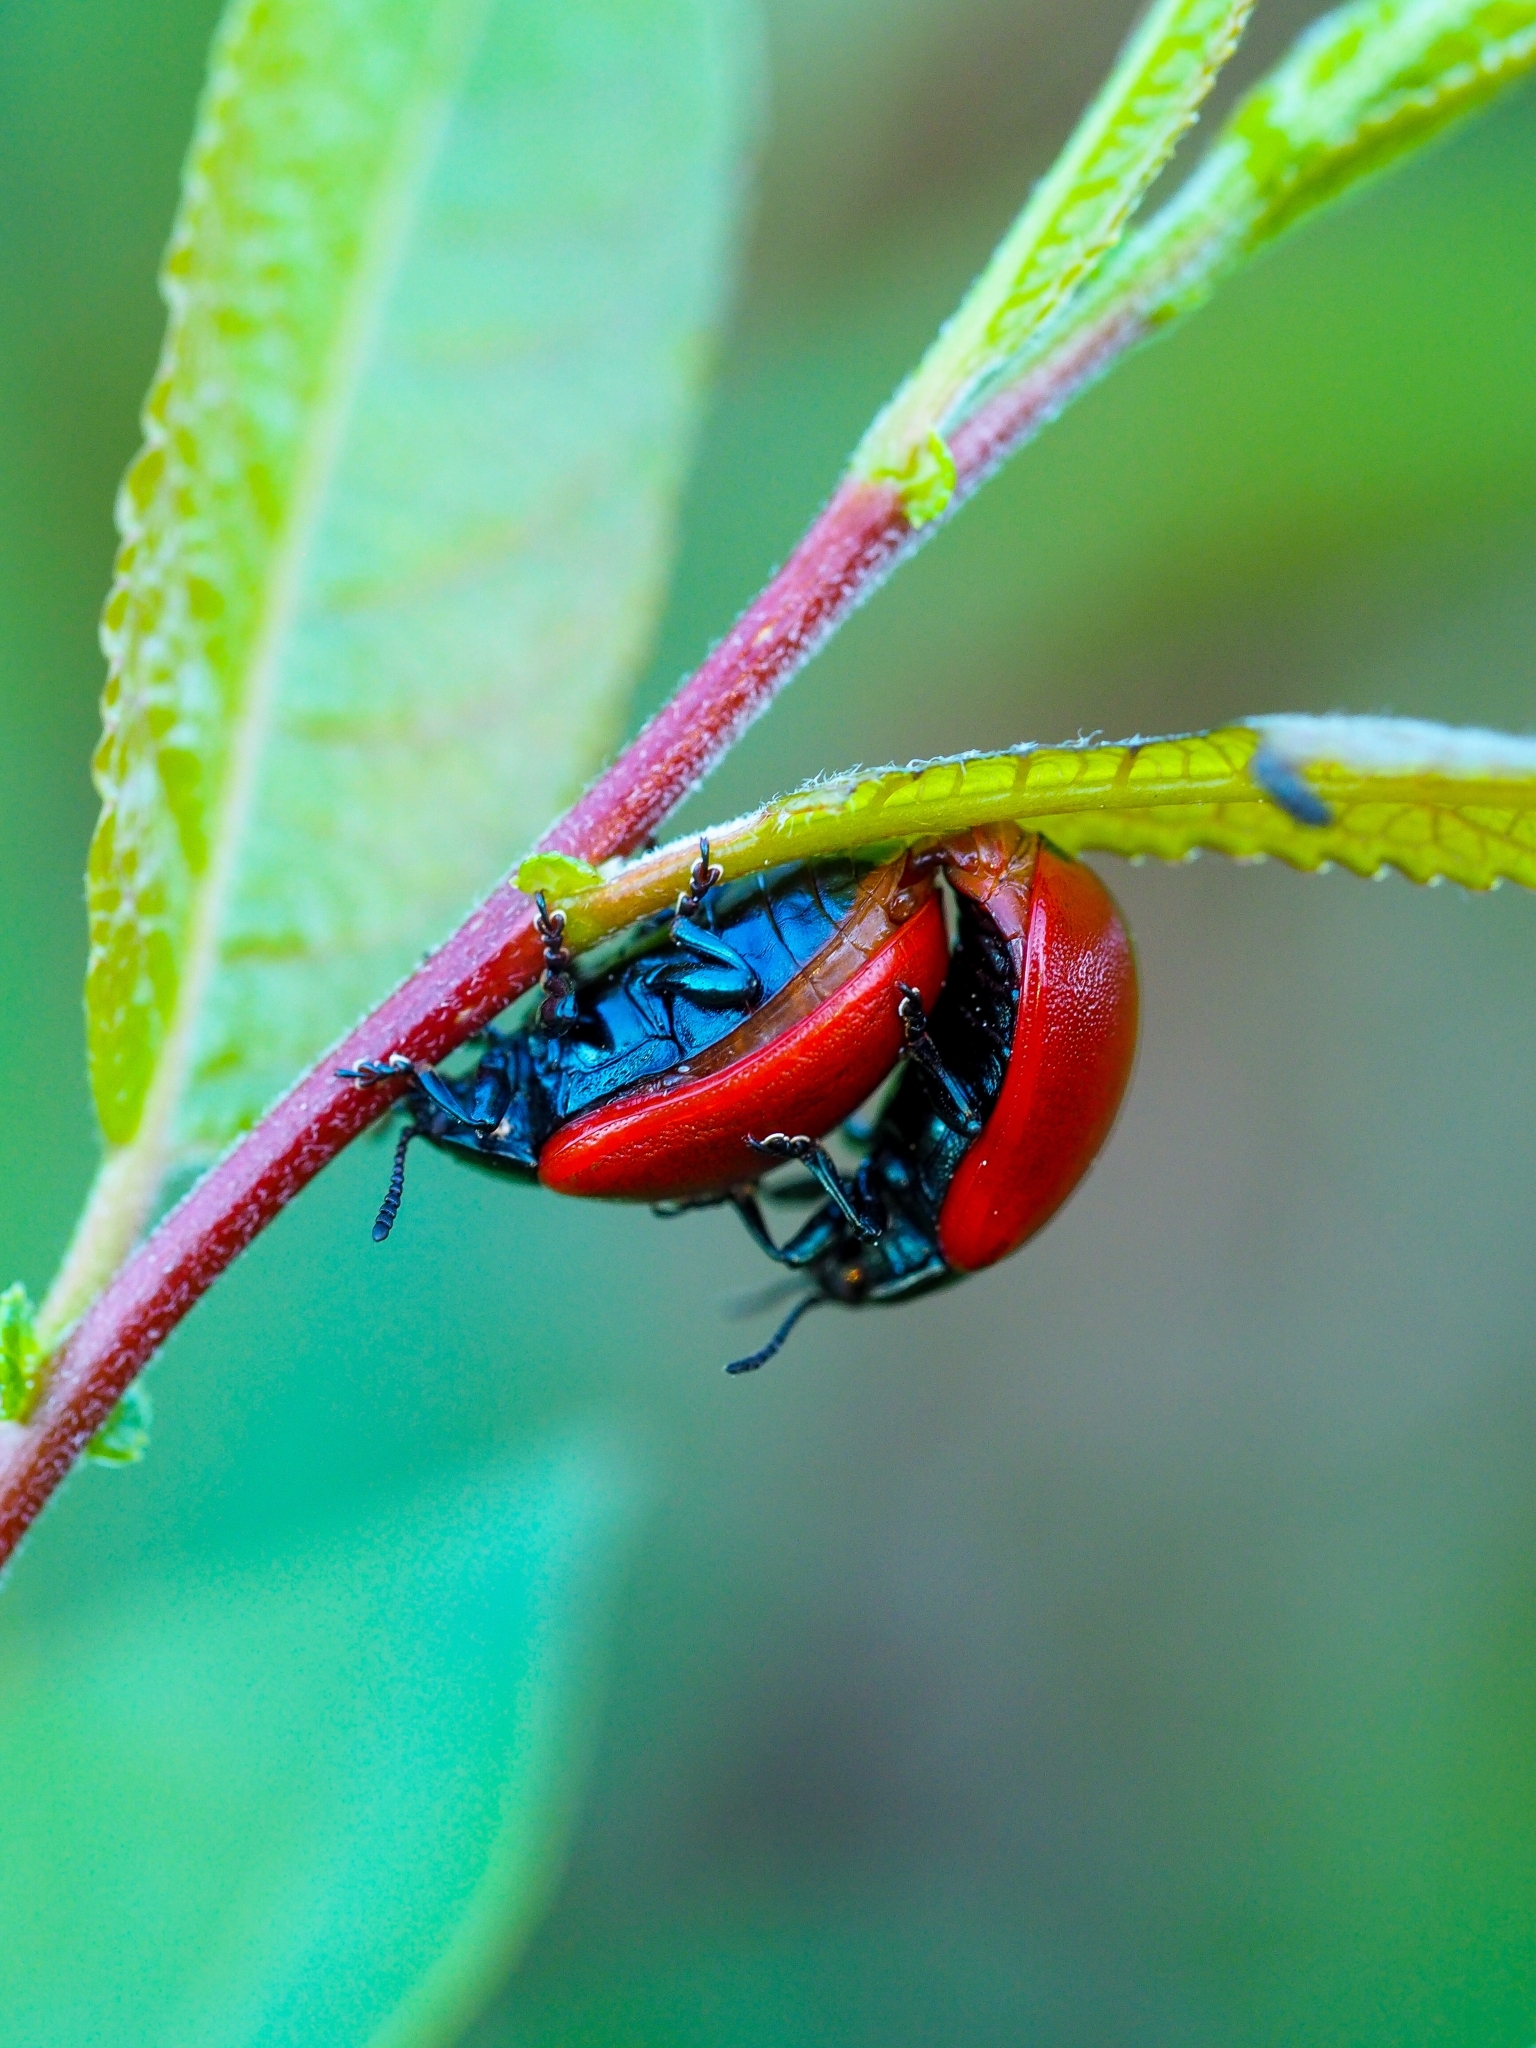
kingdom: Animalia
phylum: Arthropoda
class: Insecta
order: Coleoptera
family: Chrysomelidae
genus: Chrysomela
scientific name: Chrysomela populi
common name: Red poplar leaf beetle
